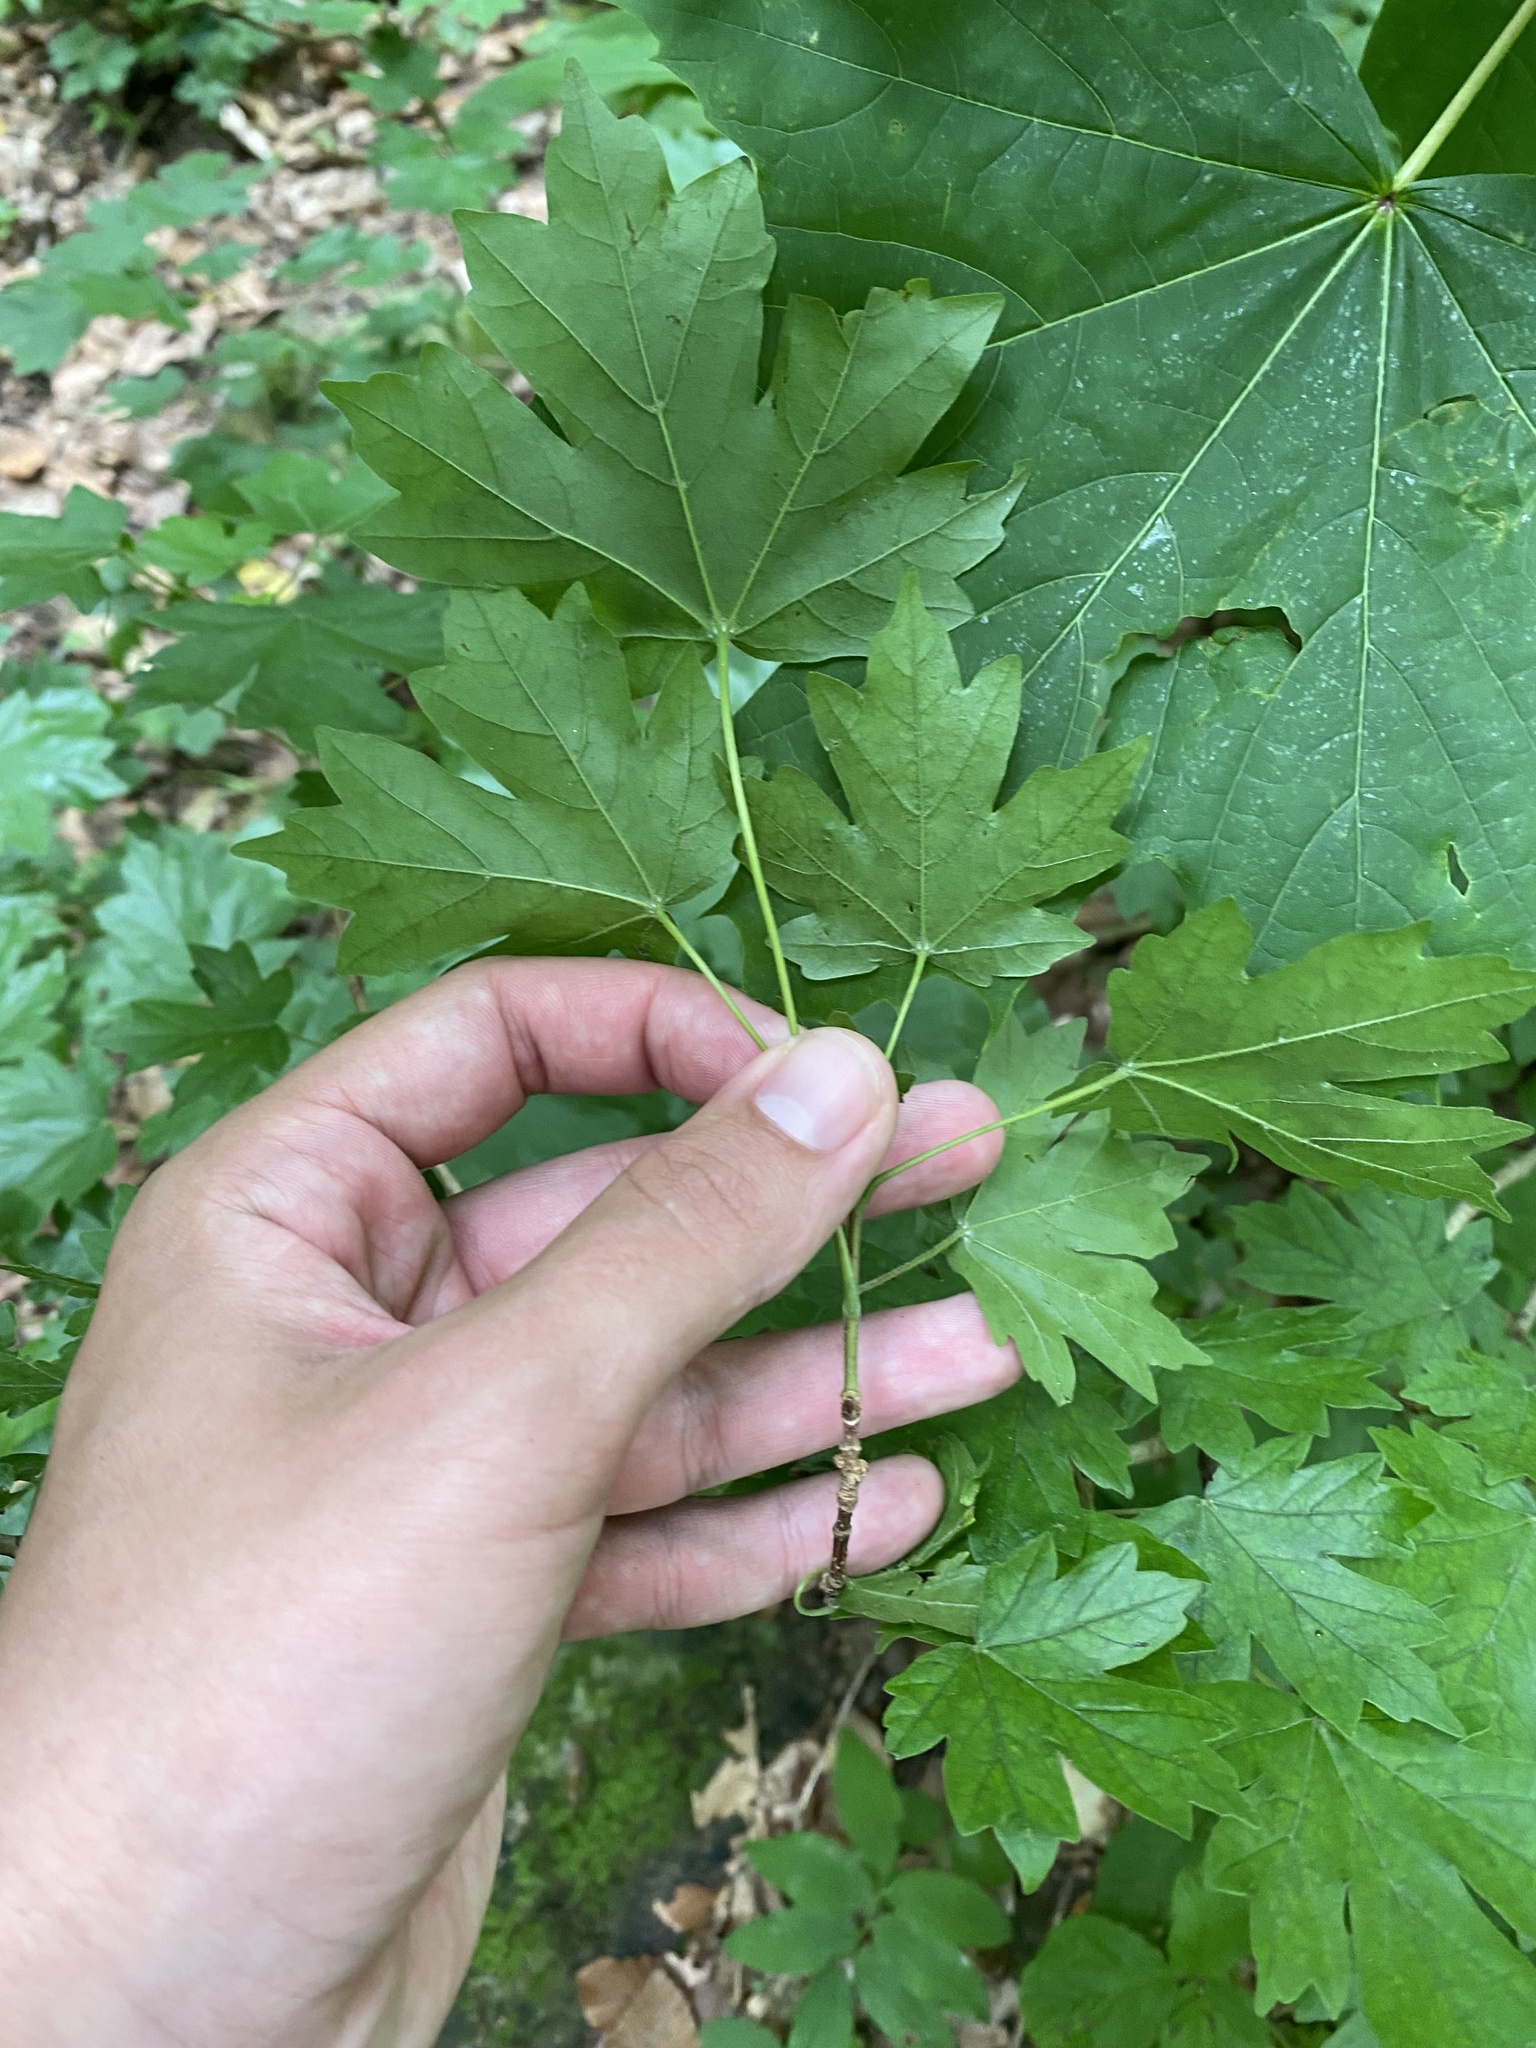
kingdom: Plantae
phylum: Tracheophyta
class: Magnoliopsida
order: Sapindales
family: Sapindaceae
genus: Acer
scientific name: Acer campestre
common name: Field maple
